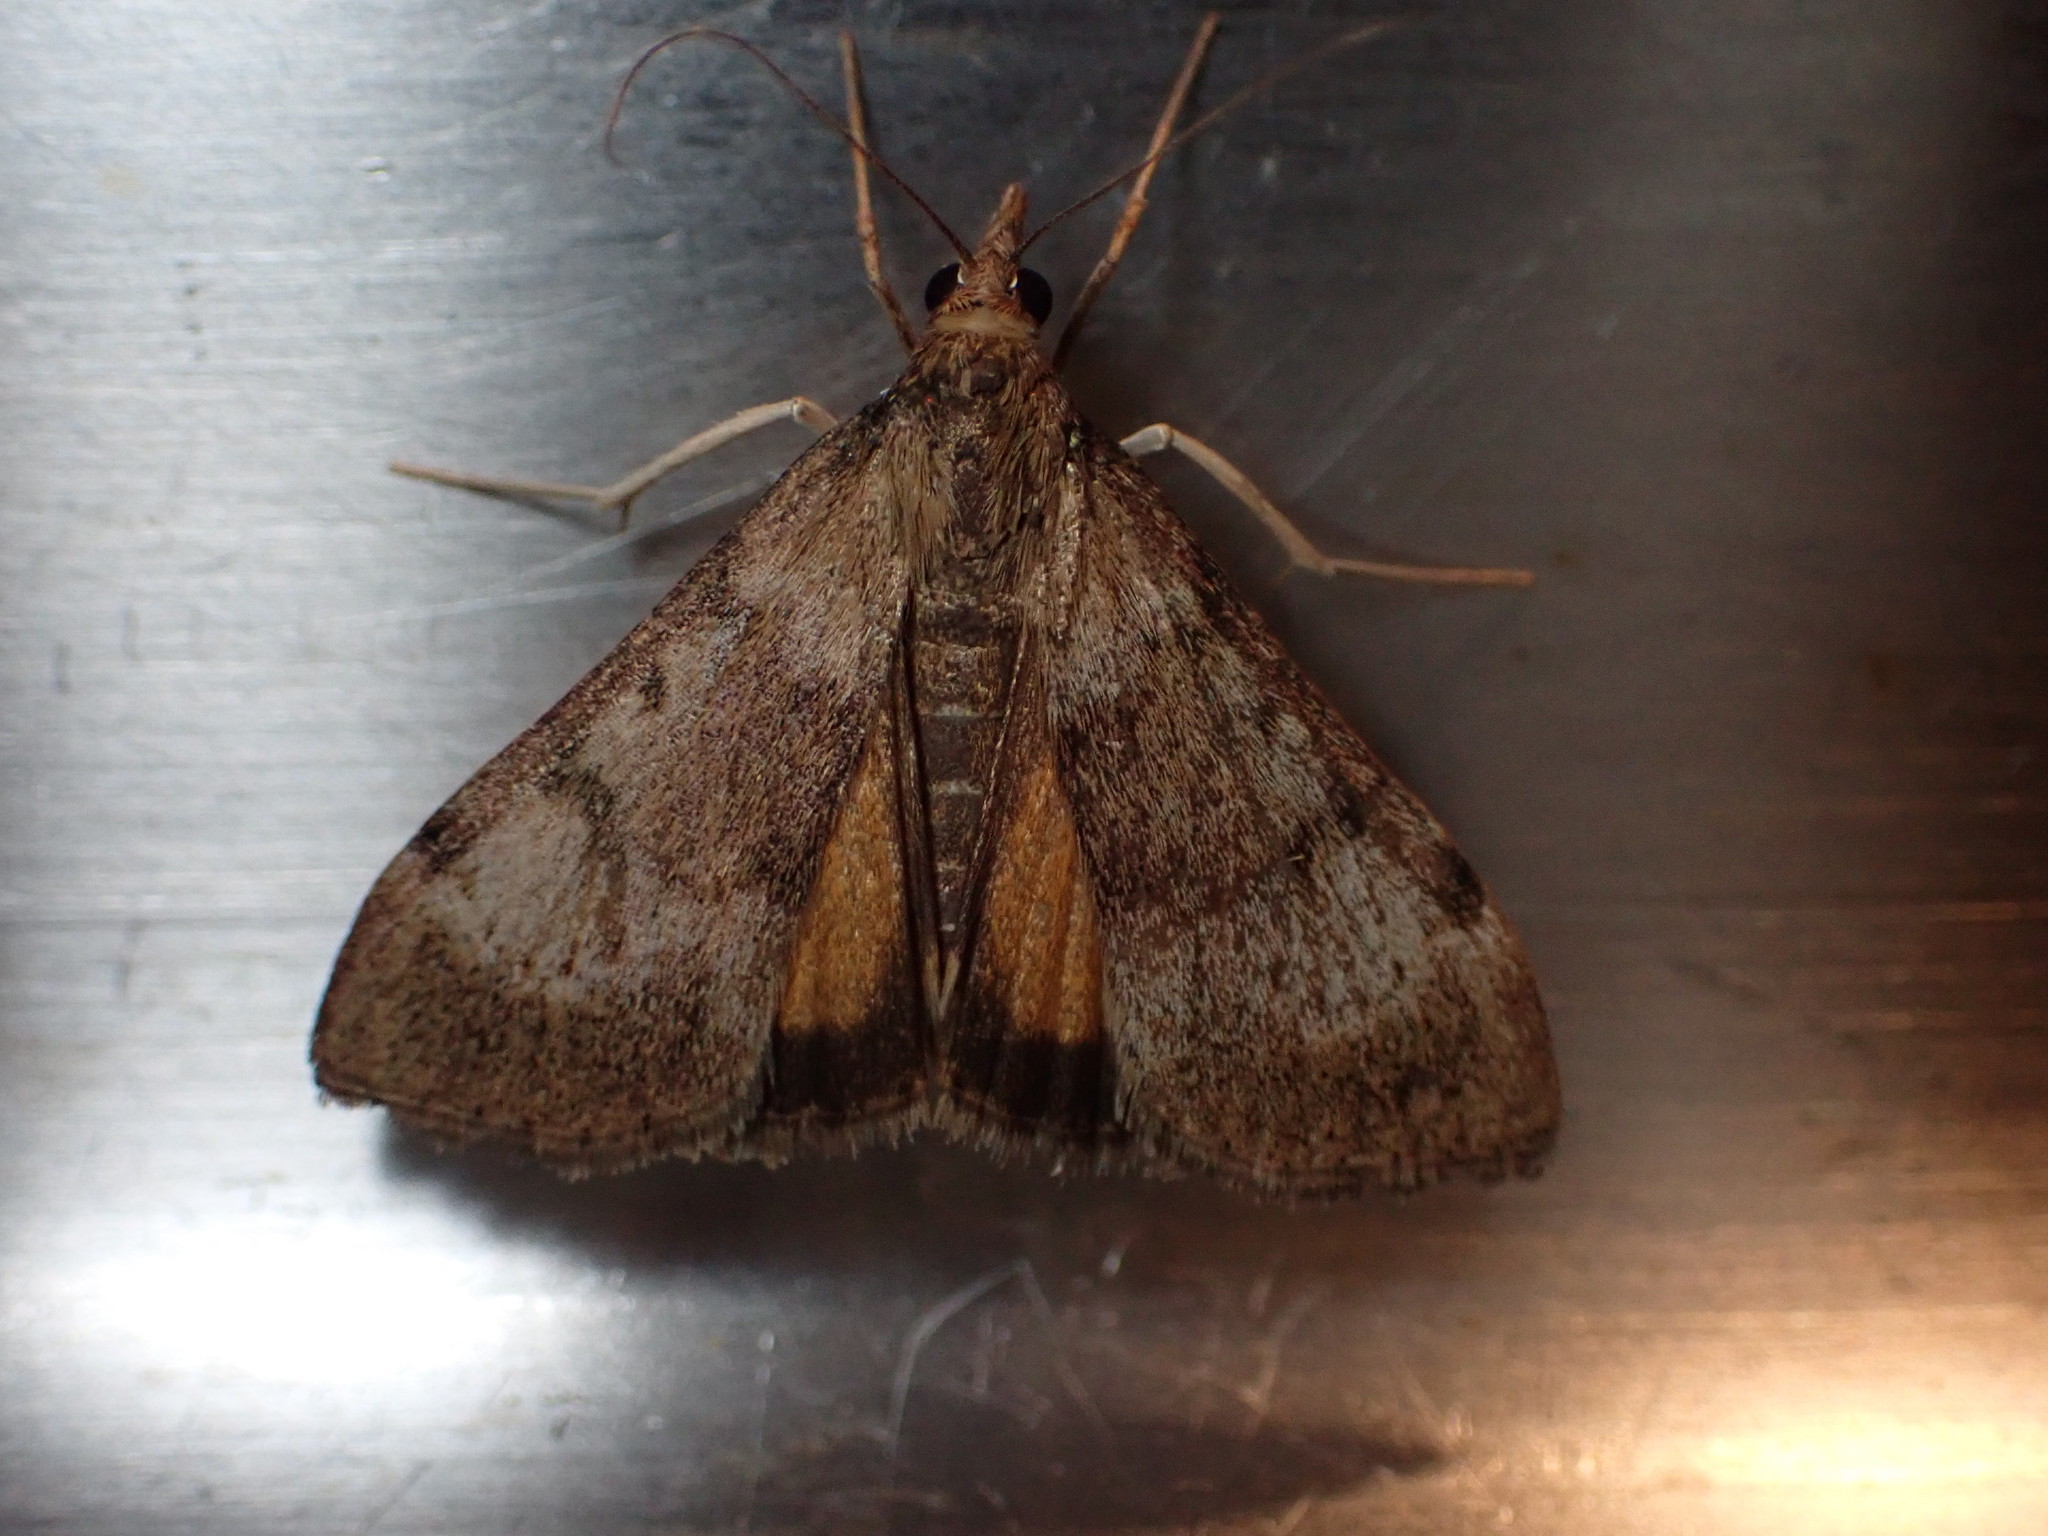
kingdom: Animalia
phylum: Arthropoda
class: Insecta
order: Lepidoptera
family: Crambidae
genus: Uresiphita
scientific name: Uresiphita
